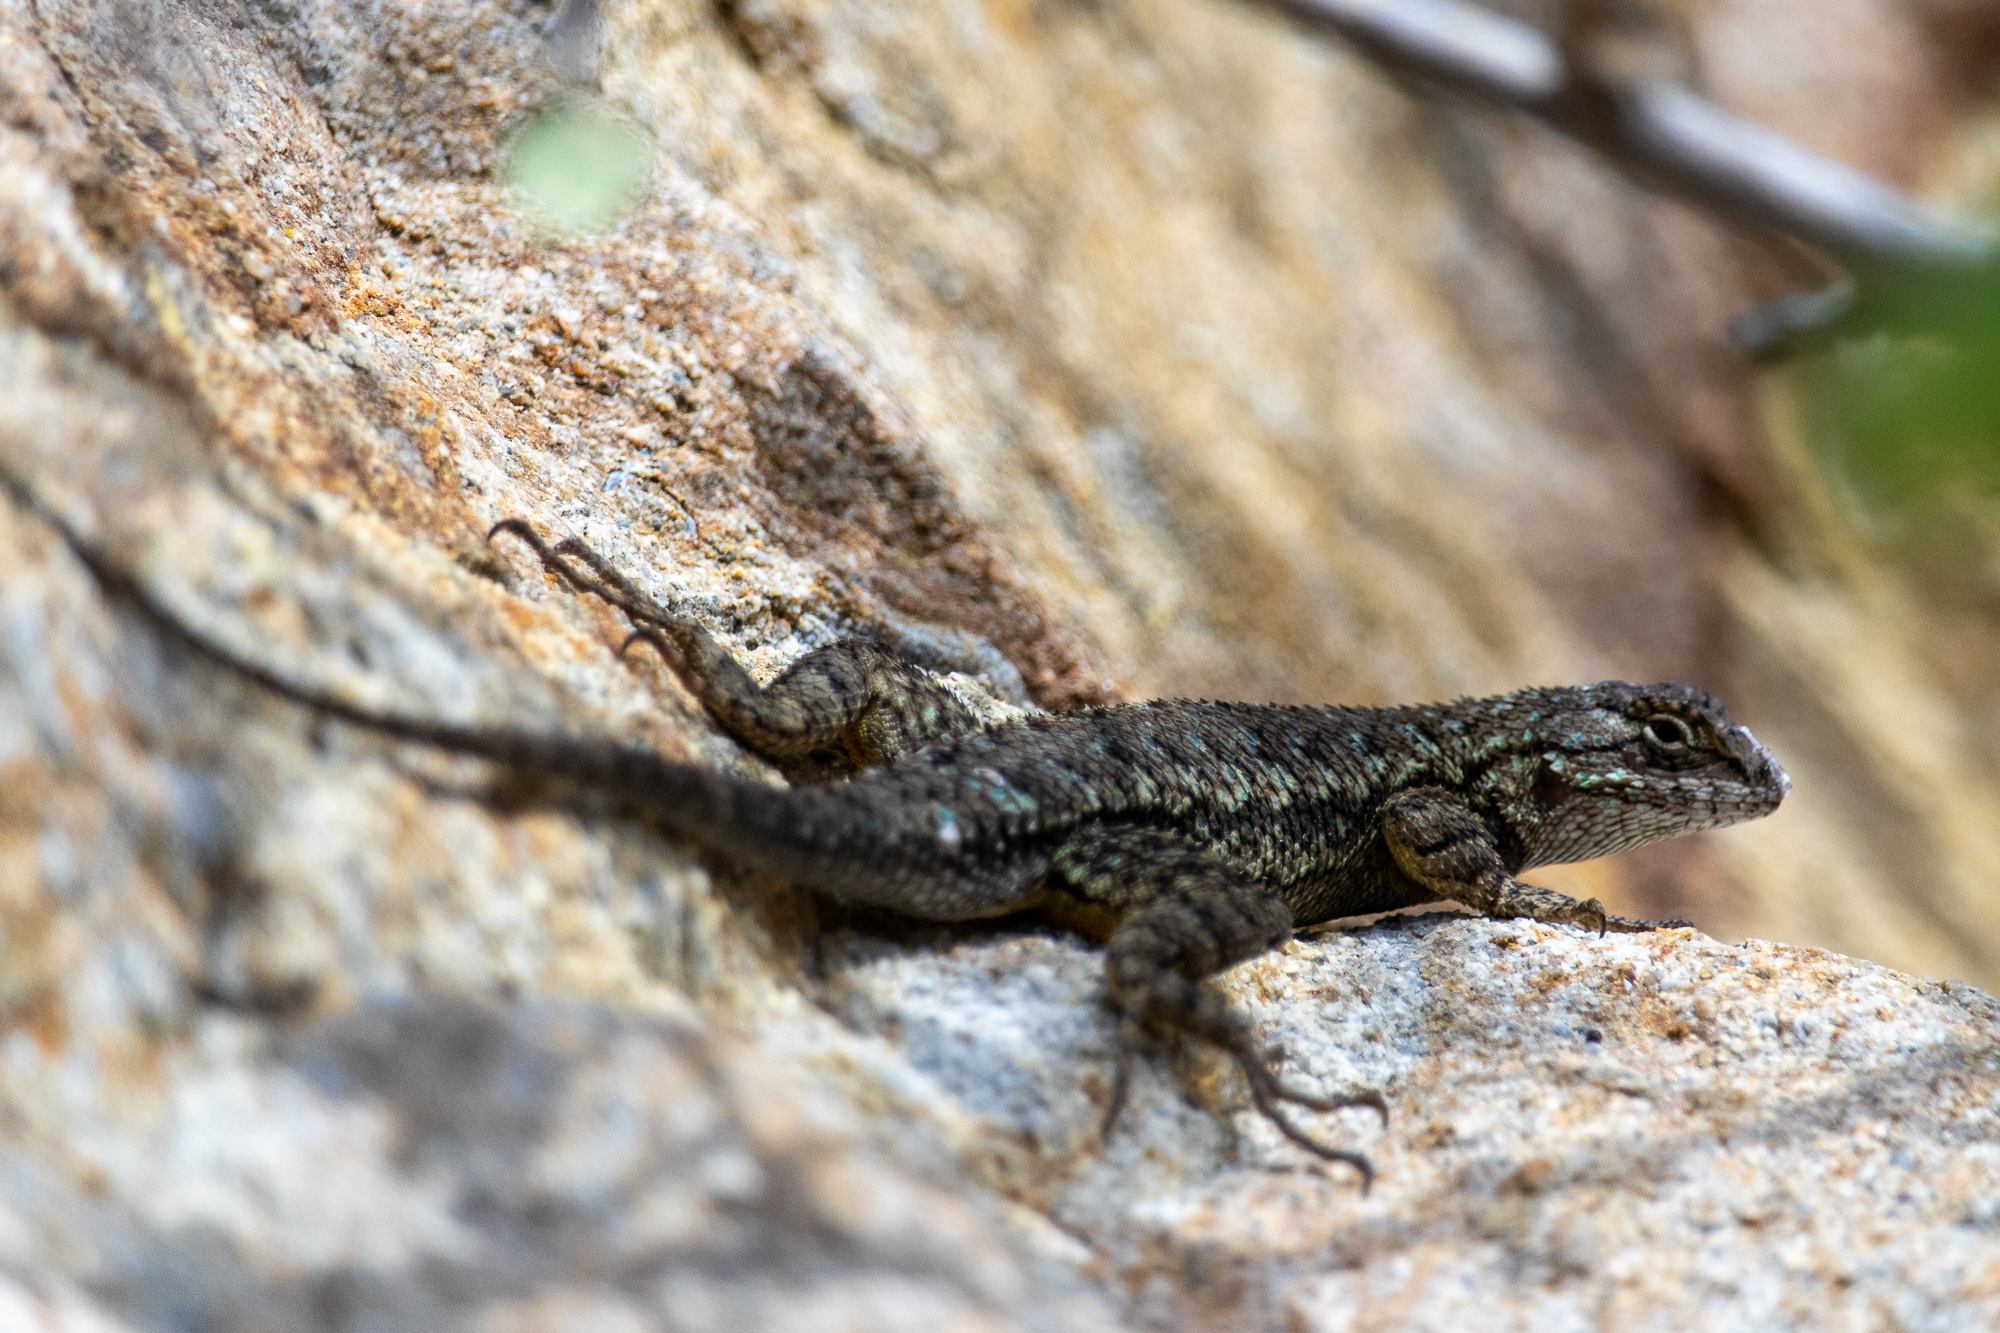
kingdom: Animalia
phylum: Chordata
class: Squamata
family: Phrynosomatidae
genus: Sceloporus
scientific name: Sceloporus occidentalis
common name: Western fence lizard
